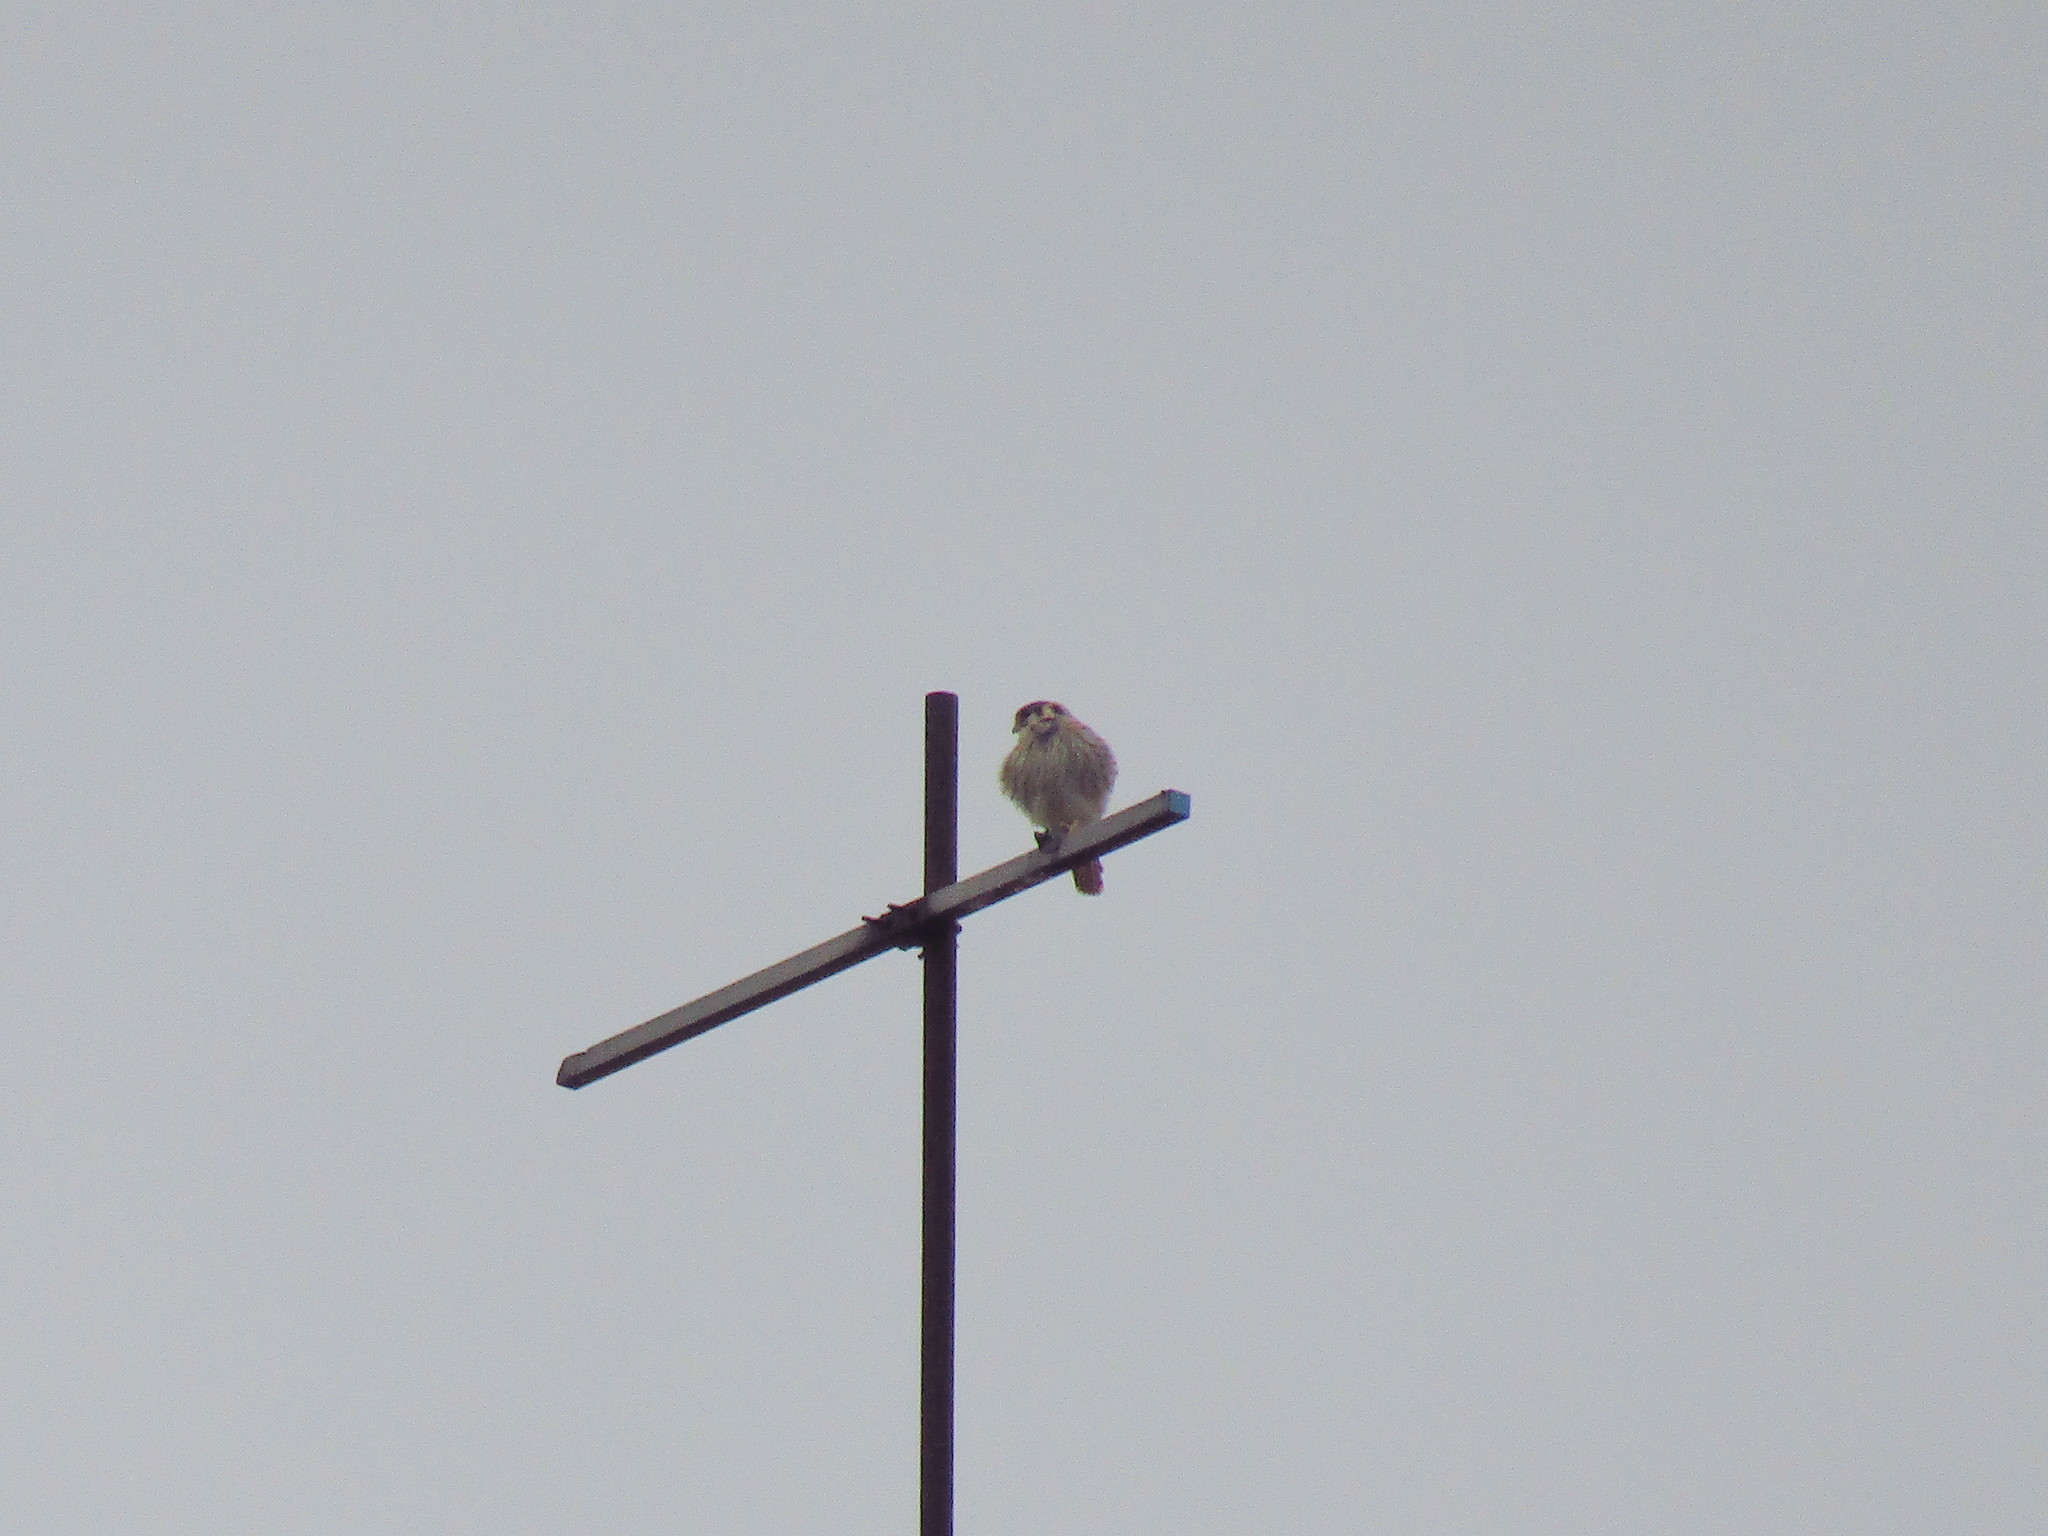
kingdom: Animalia
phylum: Chordata
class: Aves
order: Falconiformes
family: Falconidae
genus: Falco
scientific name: Falco sparverius
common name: American kestrel
